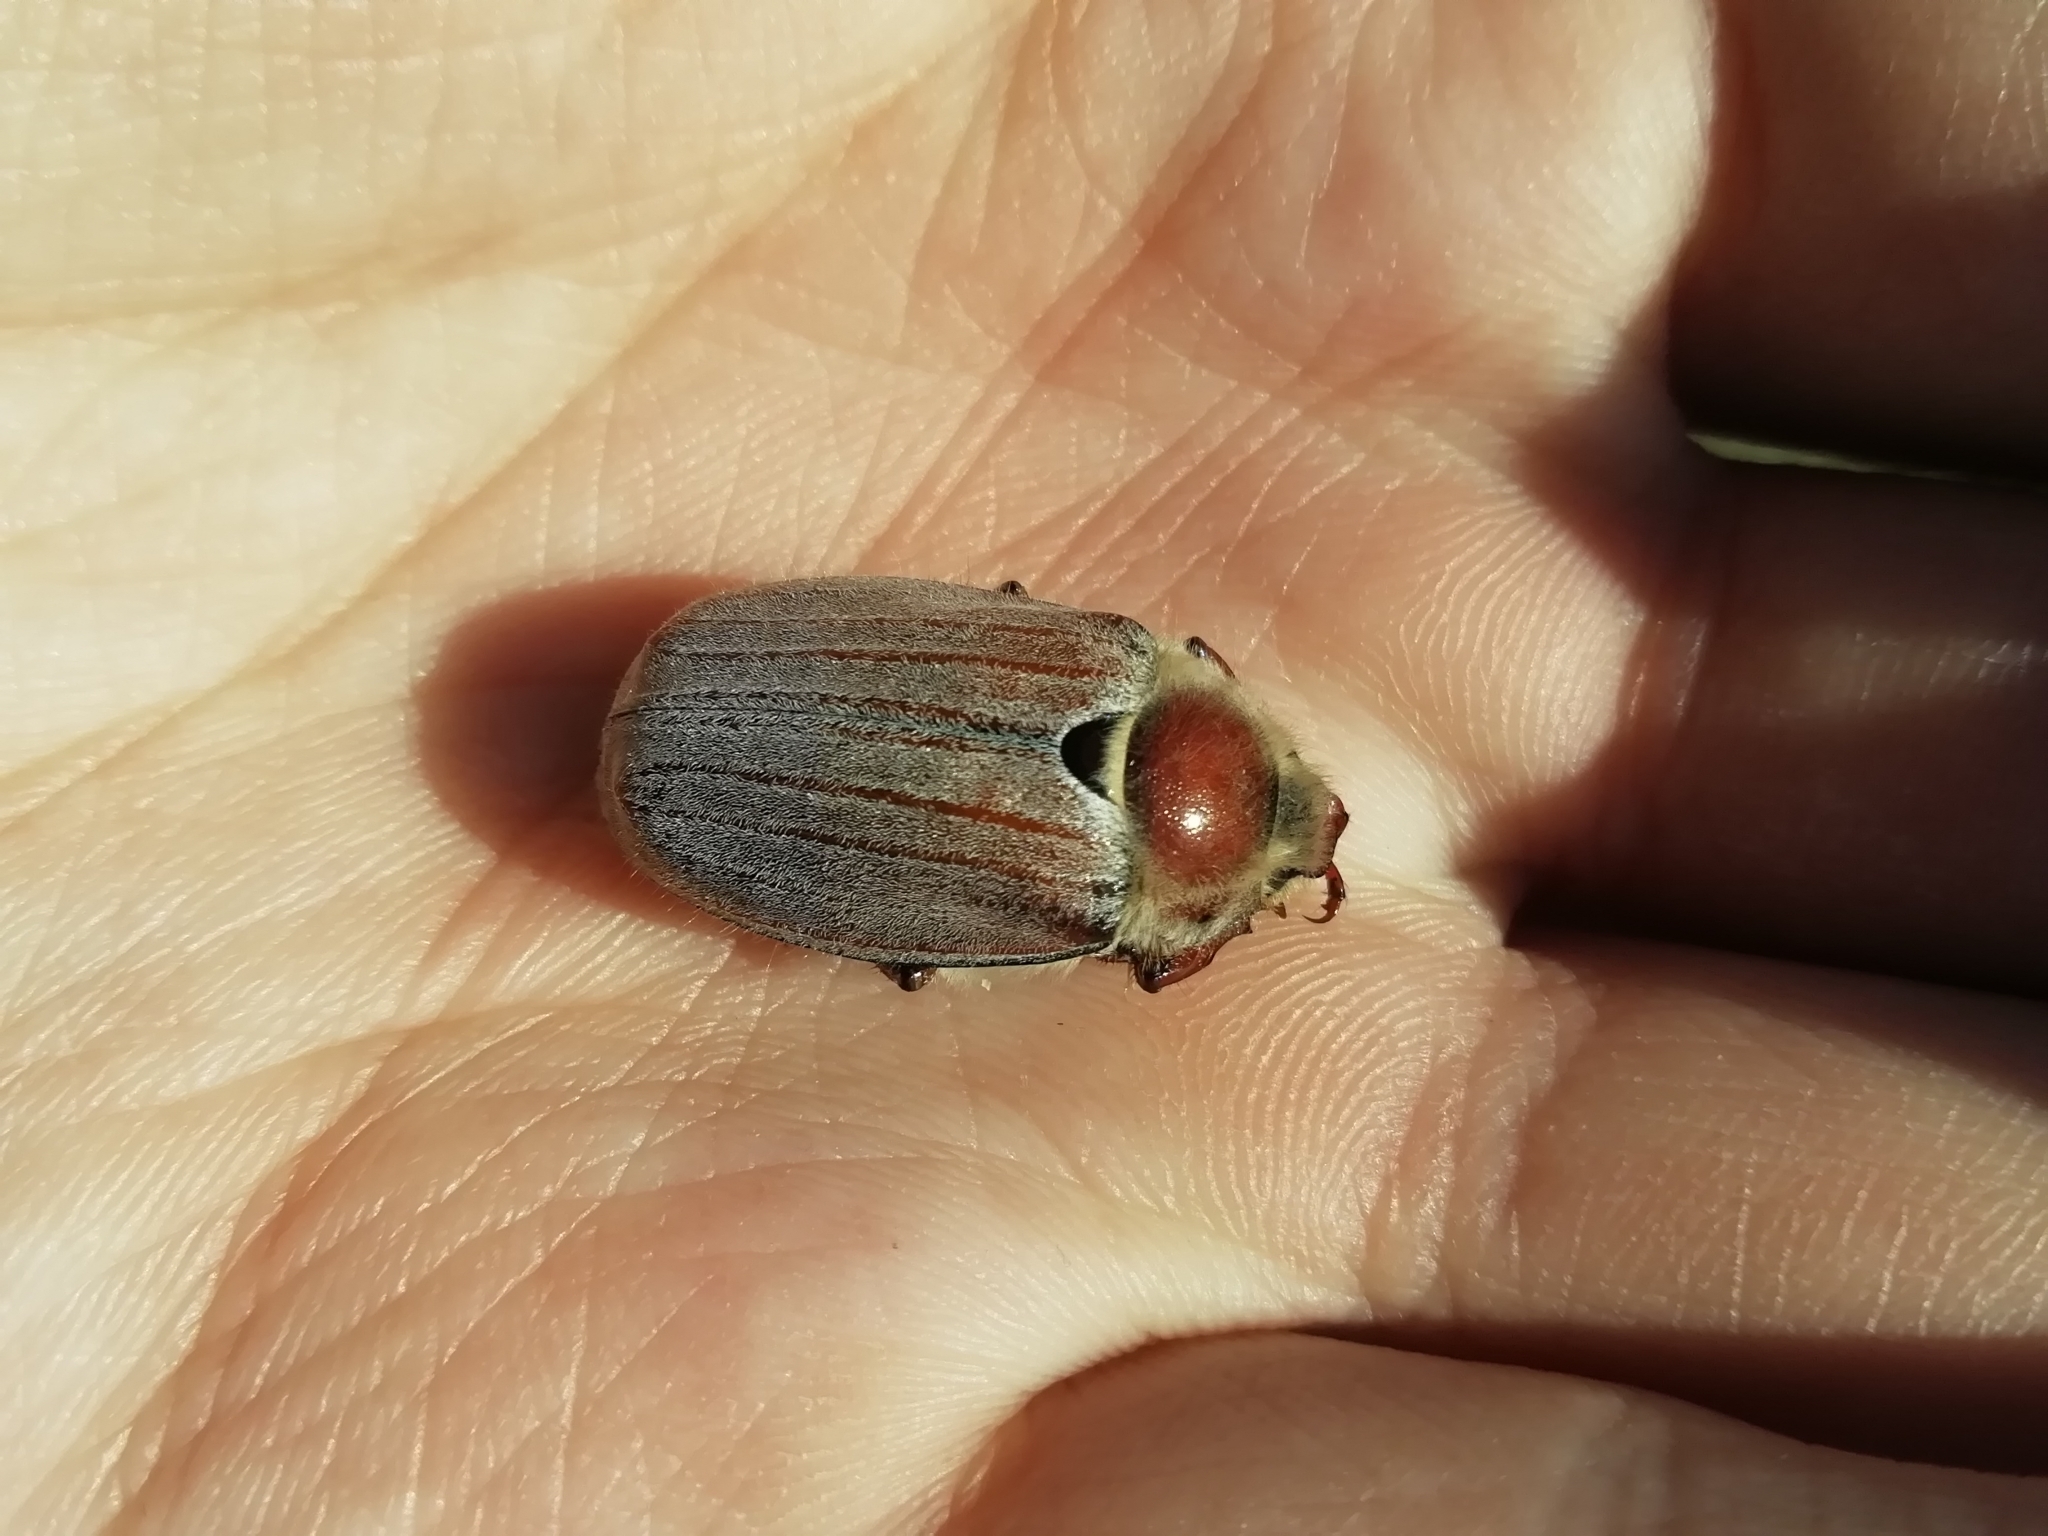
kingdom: Animalia
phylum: Arthropoda
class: Insecta
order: Coleoptera
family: Scarabaeidae
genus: Melolontha
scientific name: Melolontha hippocastani
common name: Chestnut cockchafer
